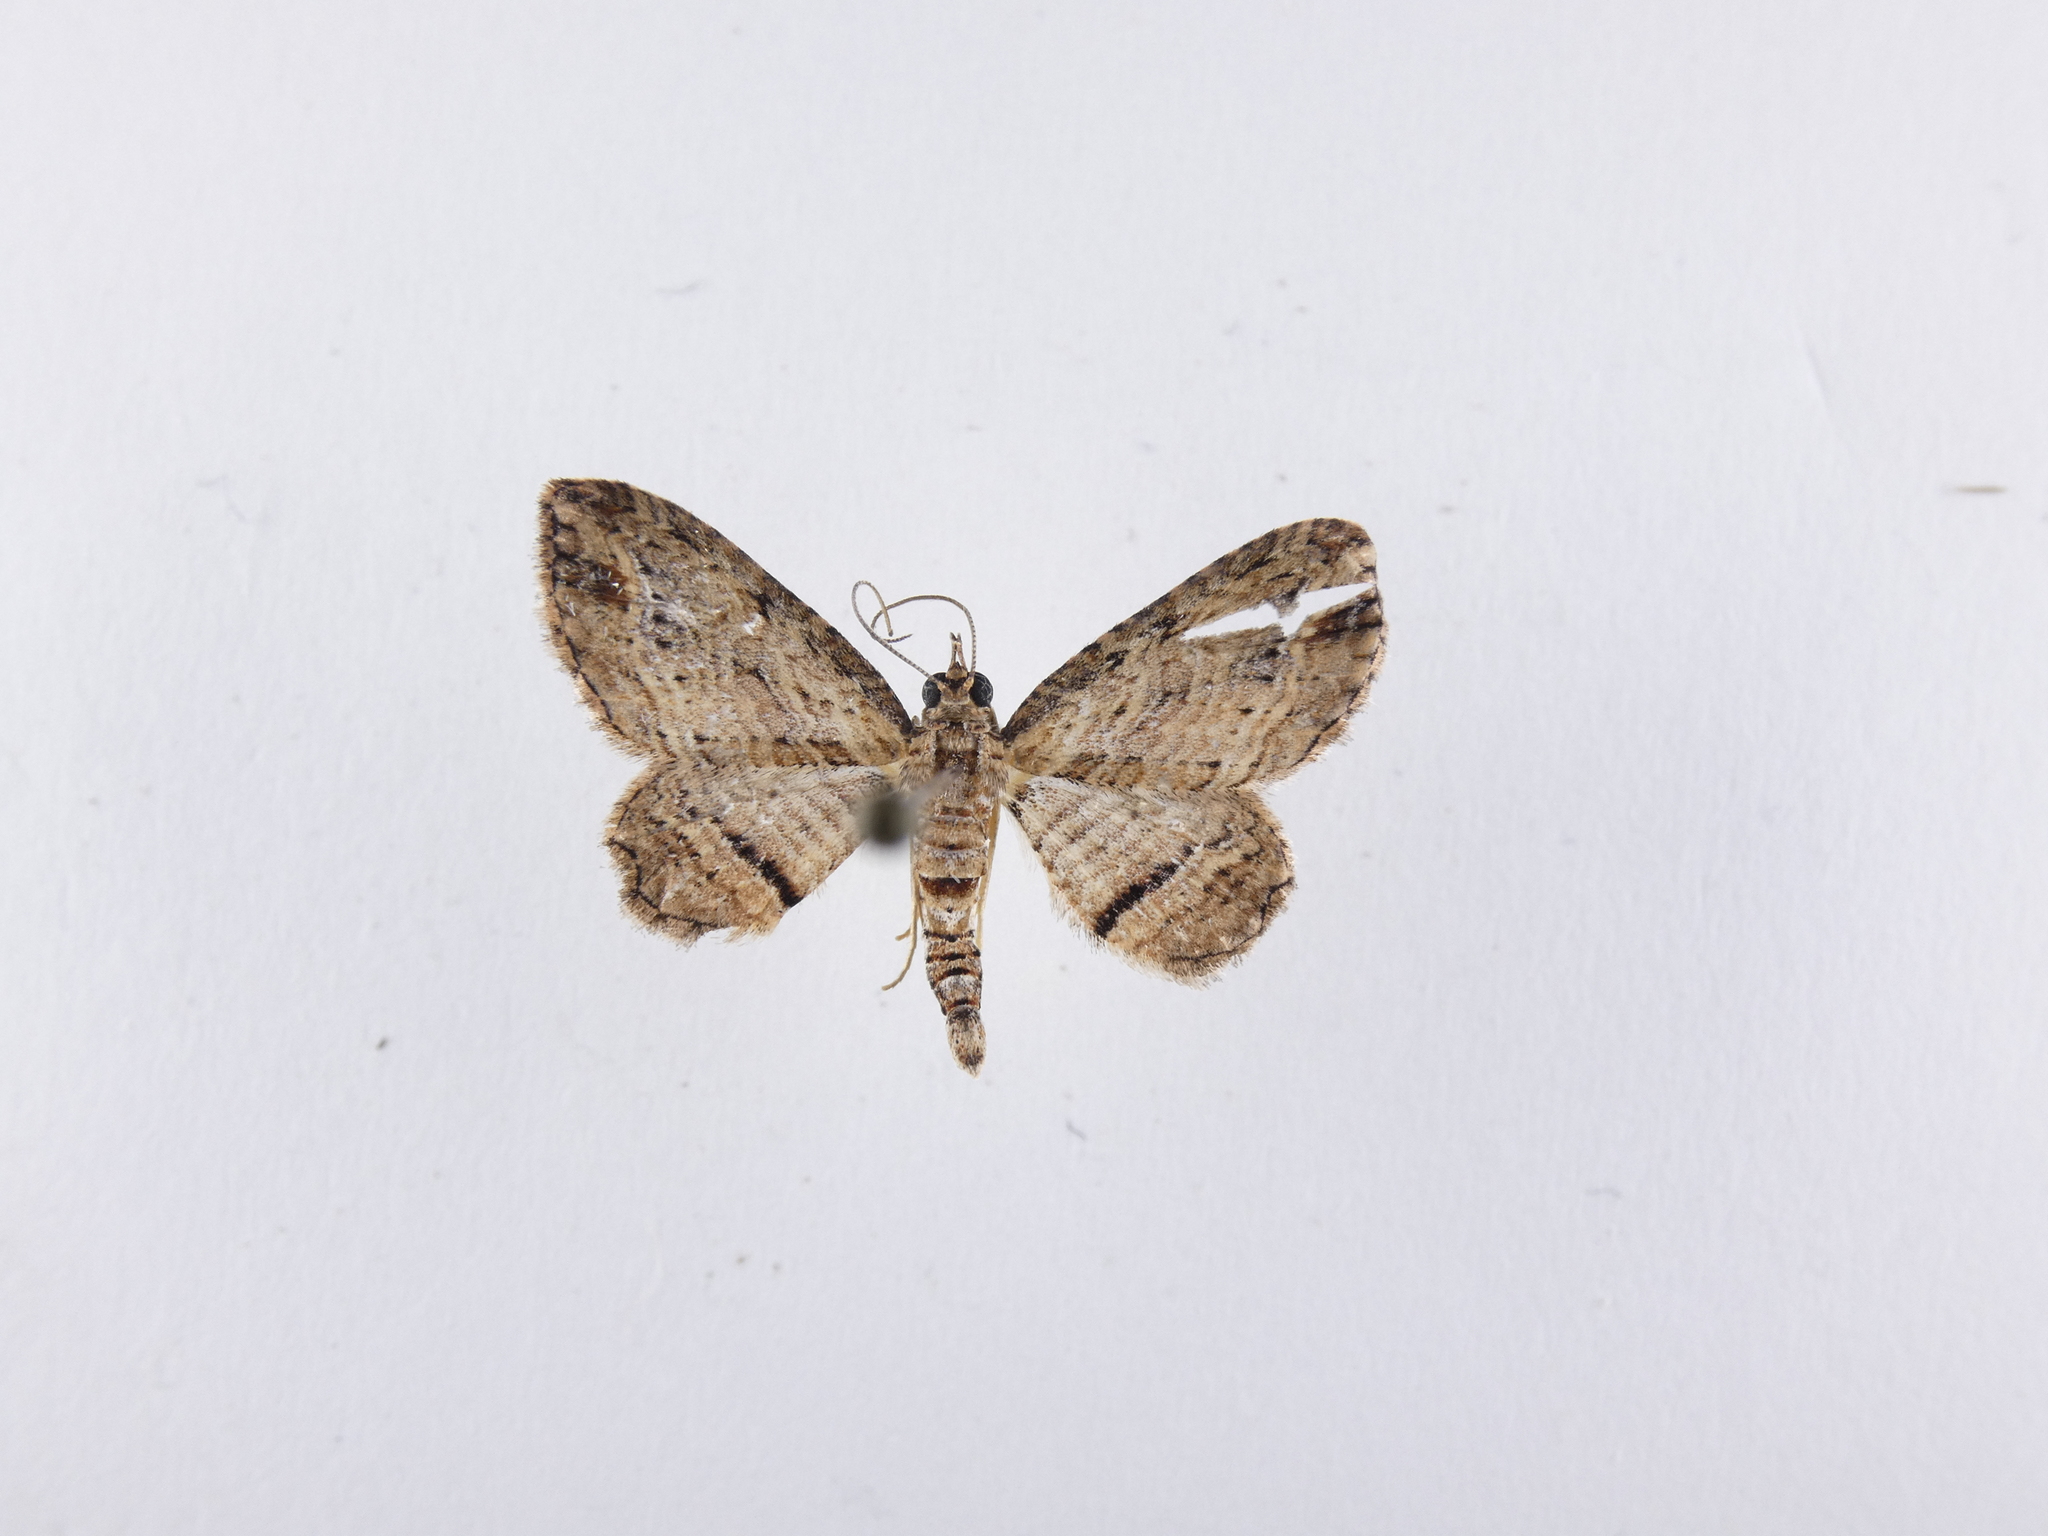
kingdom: Animalia
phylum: Arthropoda
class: Insecta
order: Lepidoptera
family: Geometridae
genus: Chloroclystis
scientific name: Chloroclystis filata
